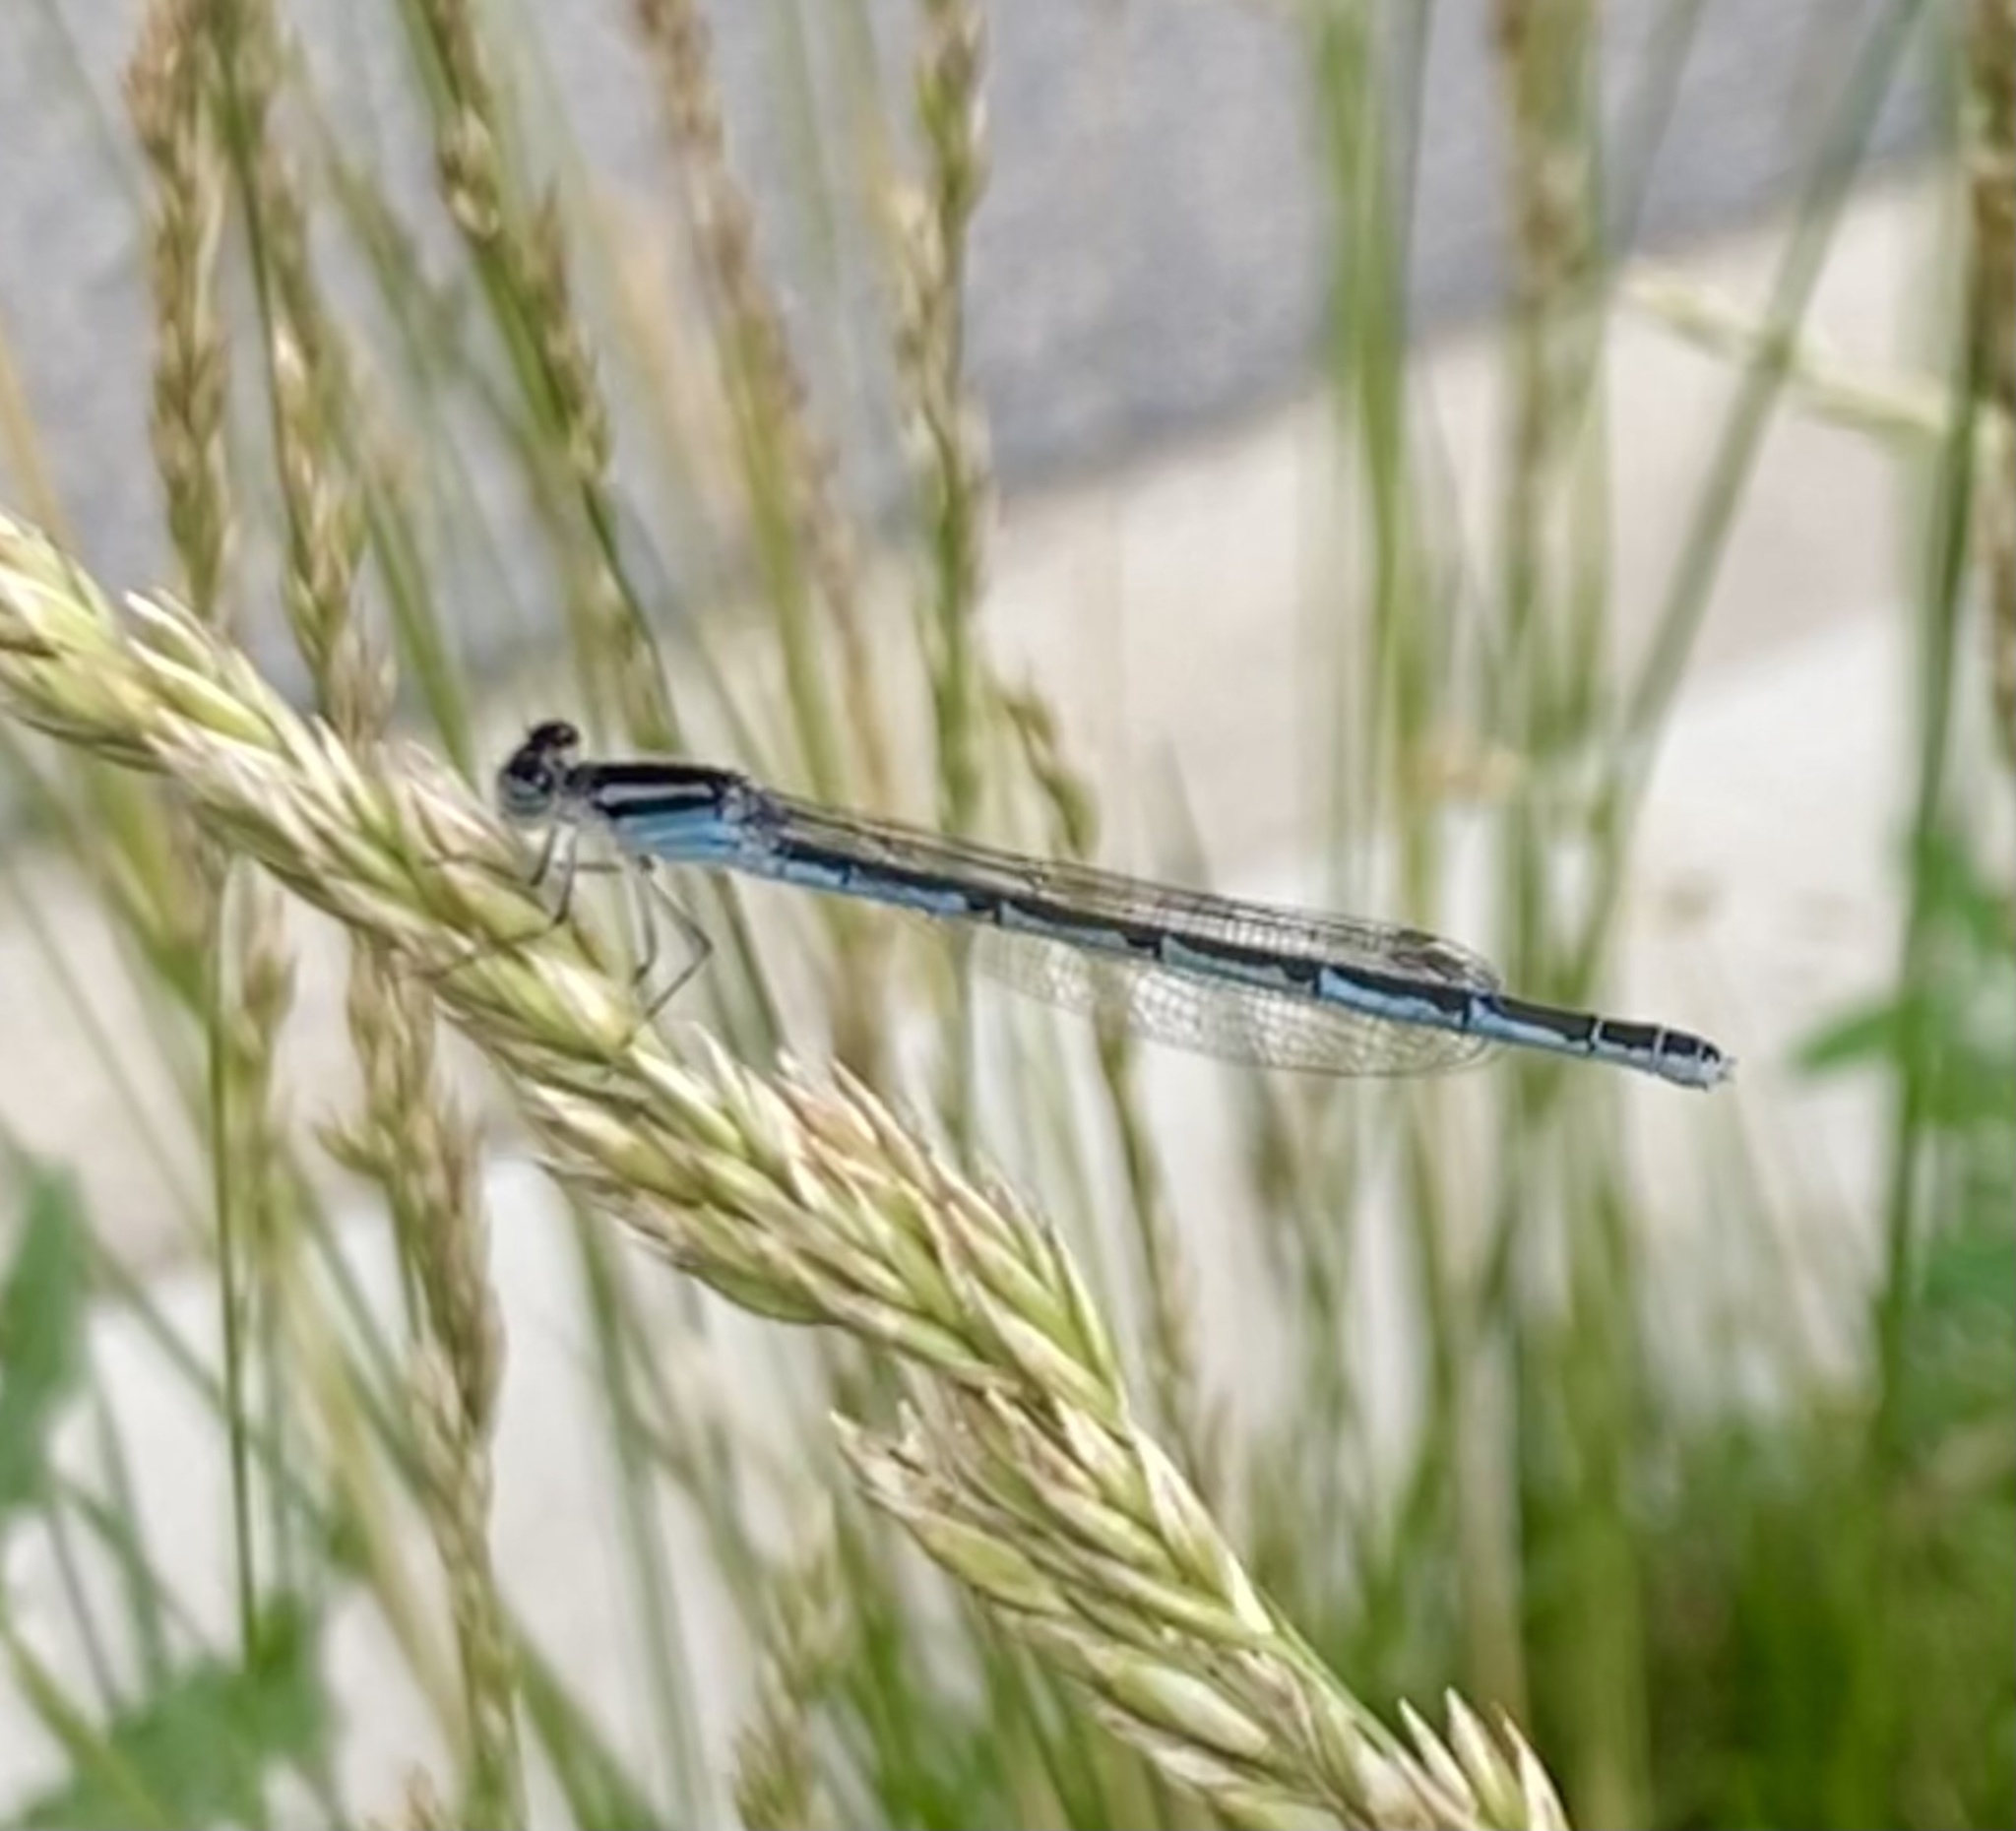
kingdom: Animalia
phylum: Arthropoda
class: Insecta
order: Odonata
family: Coenagrionidae
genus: Enallagma
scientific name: Enallagma
